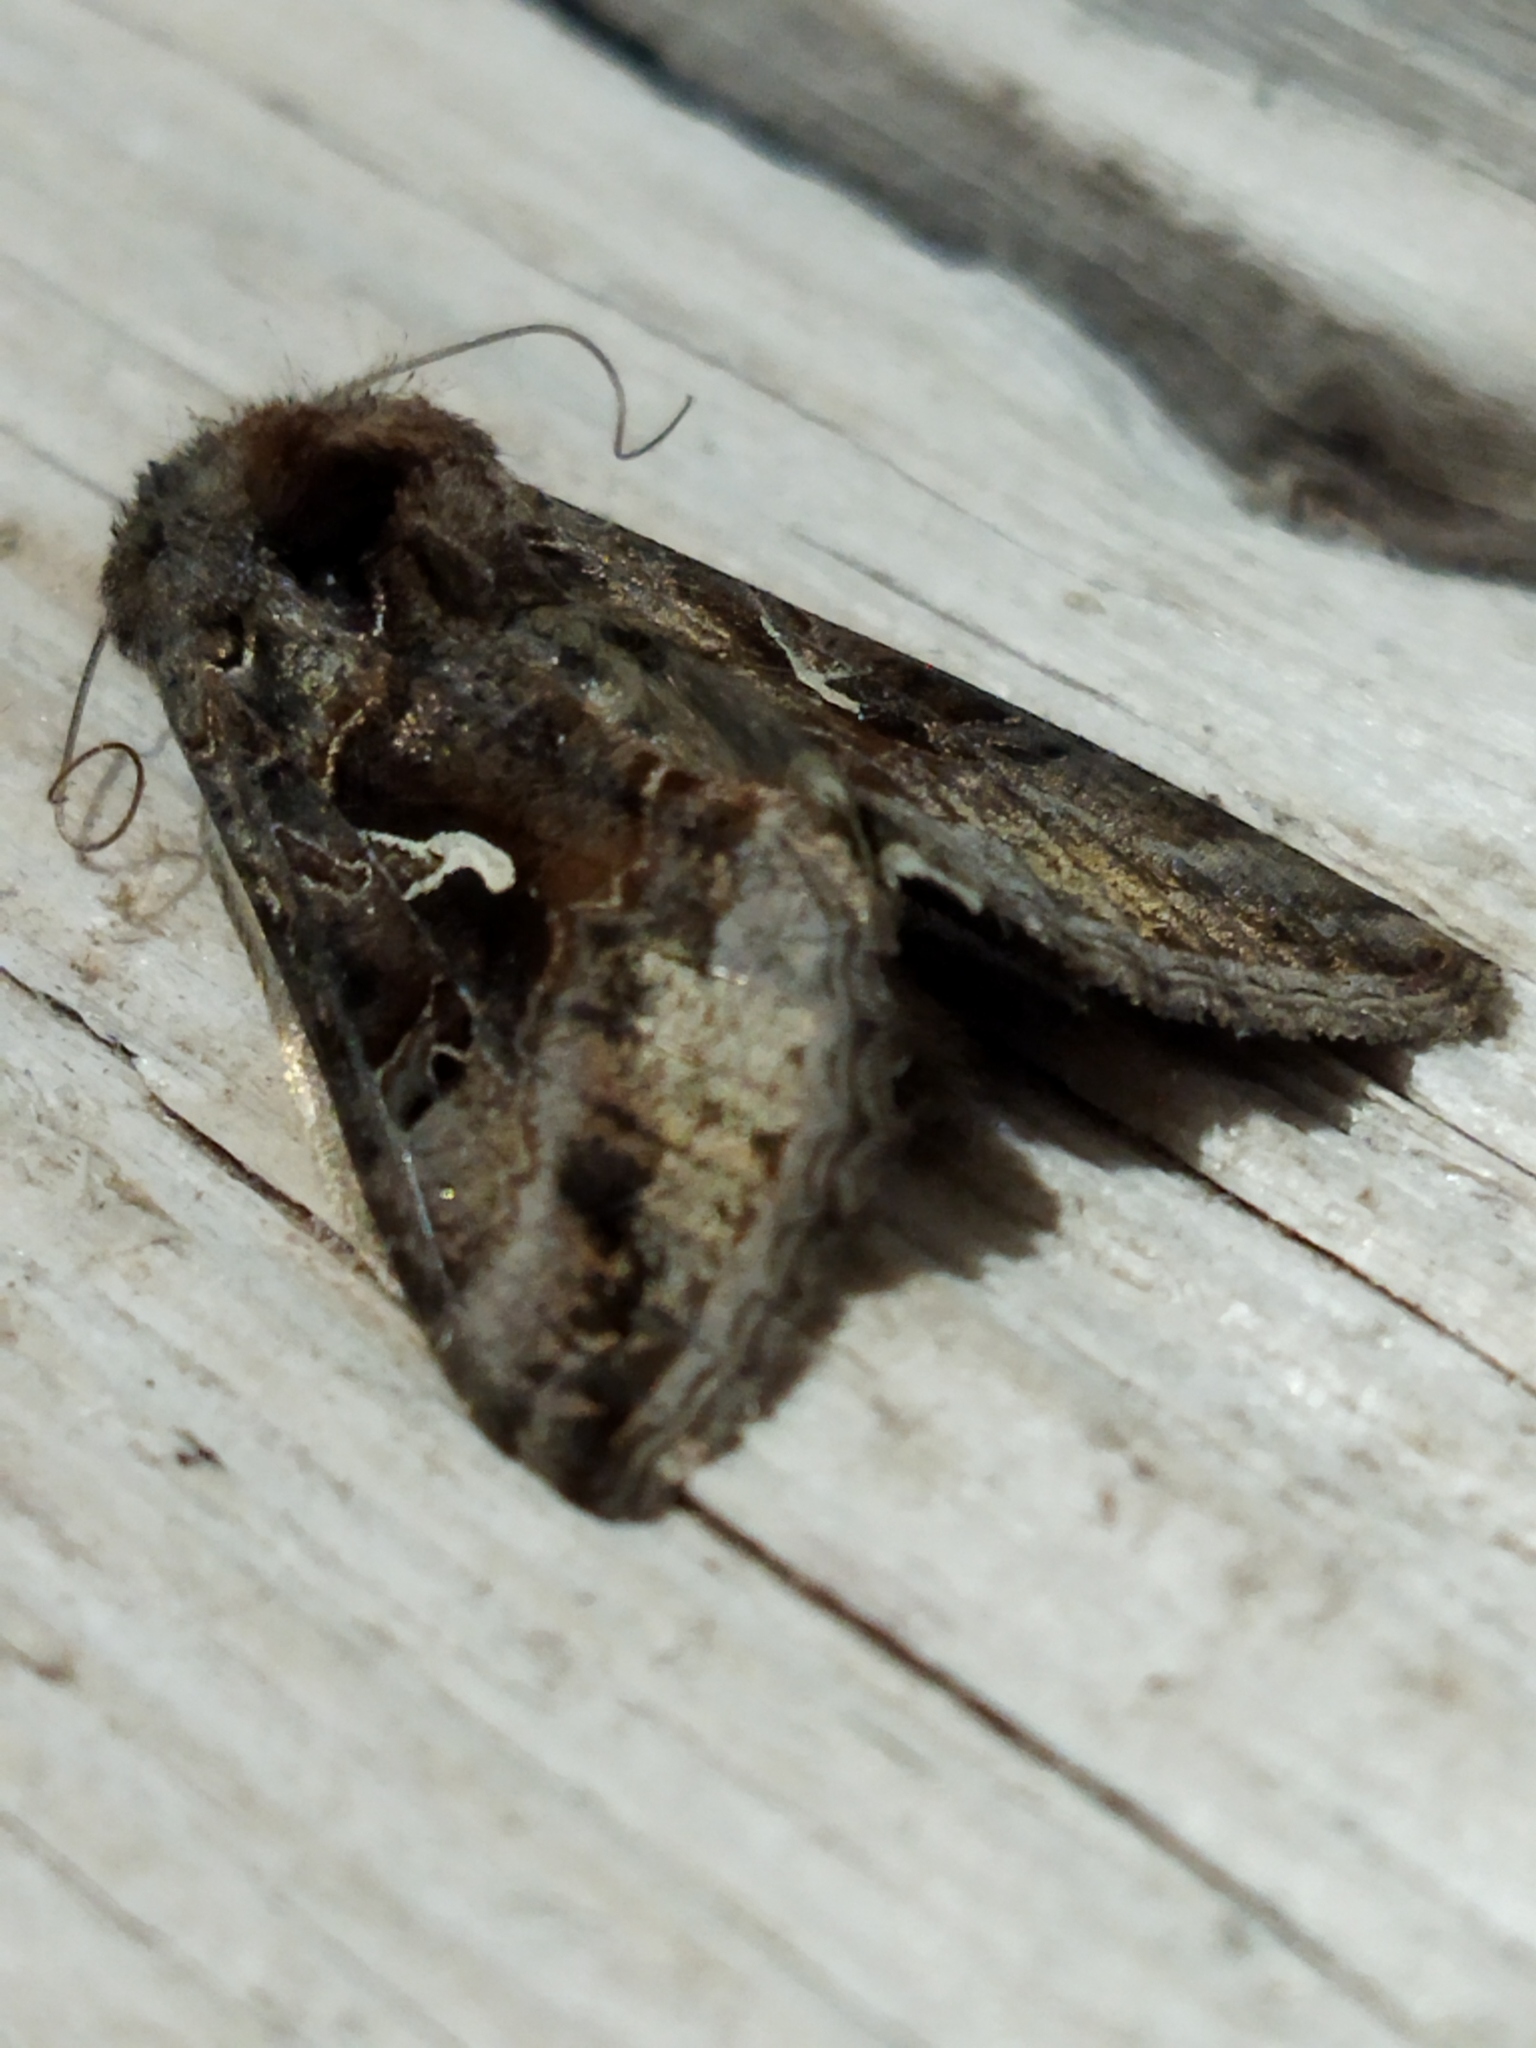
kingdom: Animalia
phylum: Arthropoda
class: Insecta
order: Lepidoptera
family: Noctuidae
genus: Autographa
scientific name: Autographa gamma
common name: Silver y
